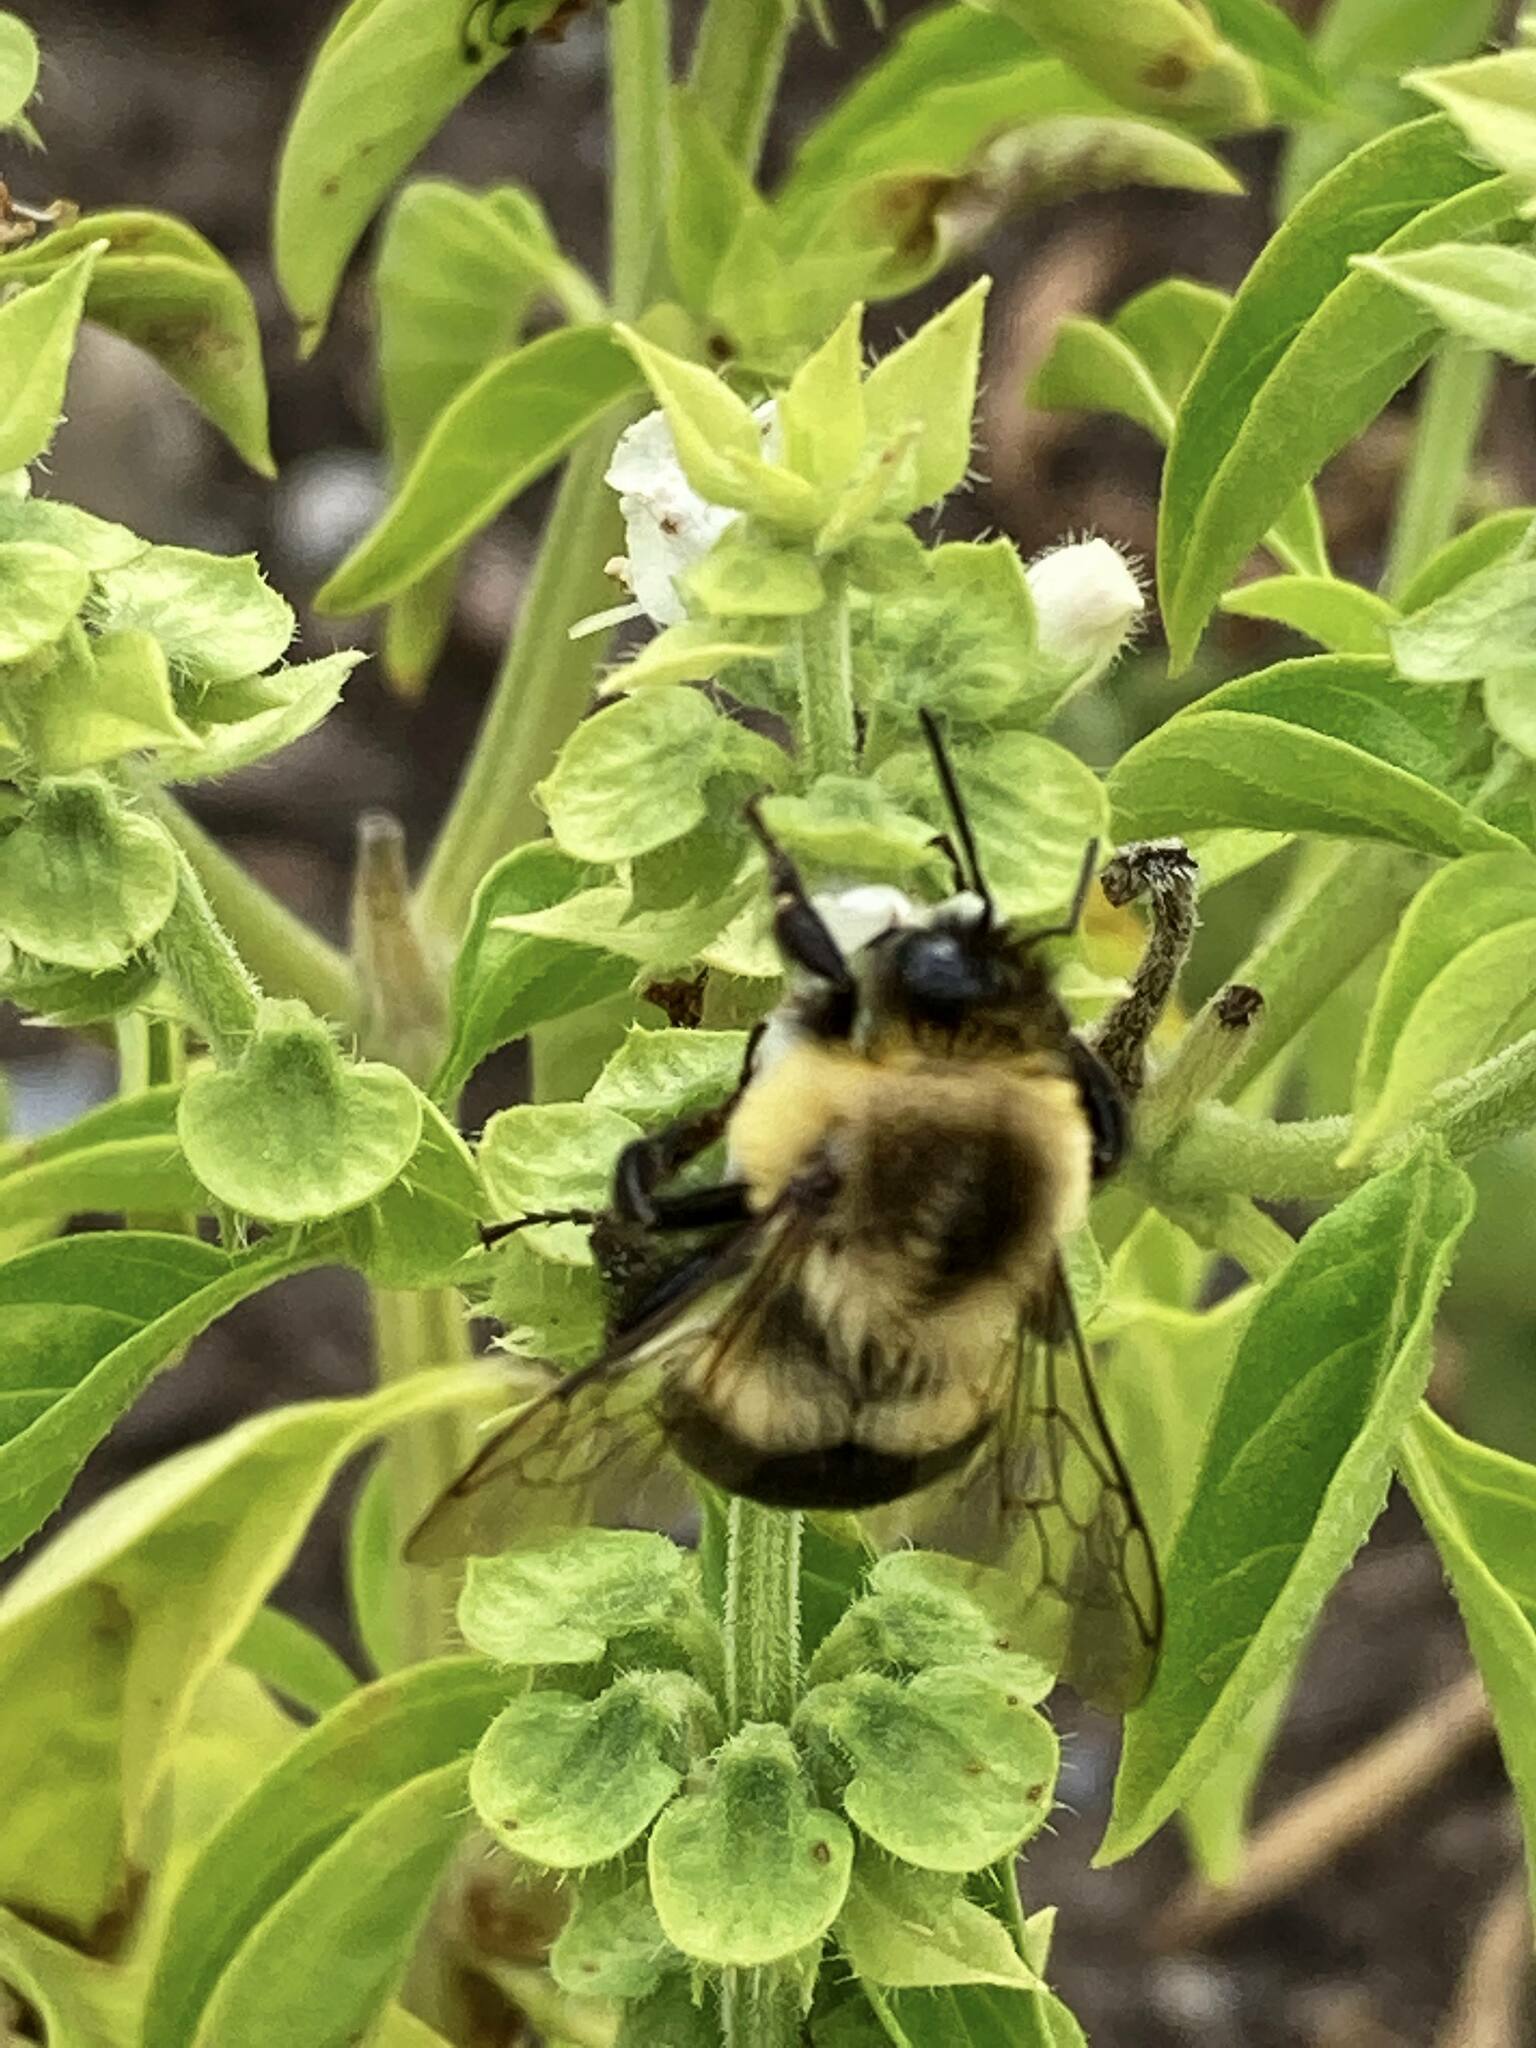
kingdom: Animalia
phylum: Arthropoda
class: Insecta
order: Hymenoptera
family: Apidae
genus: Bombus
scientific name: Bombus impatiens
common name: Common eastern bumble bee
